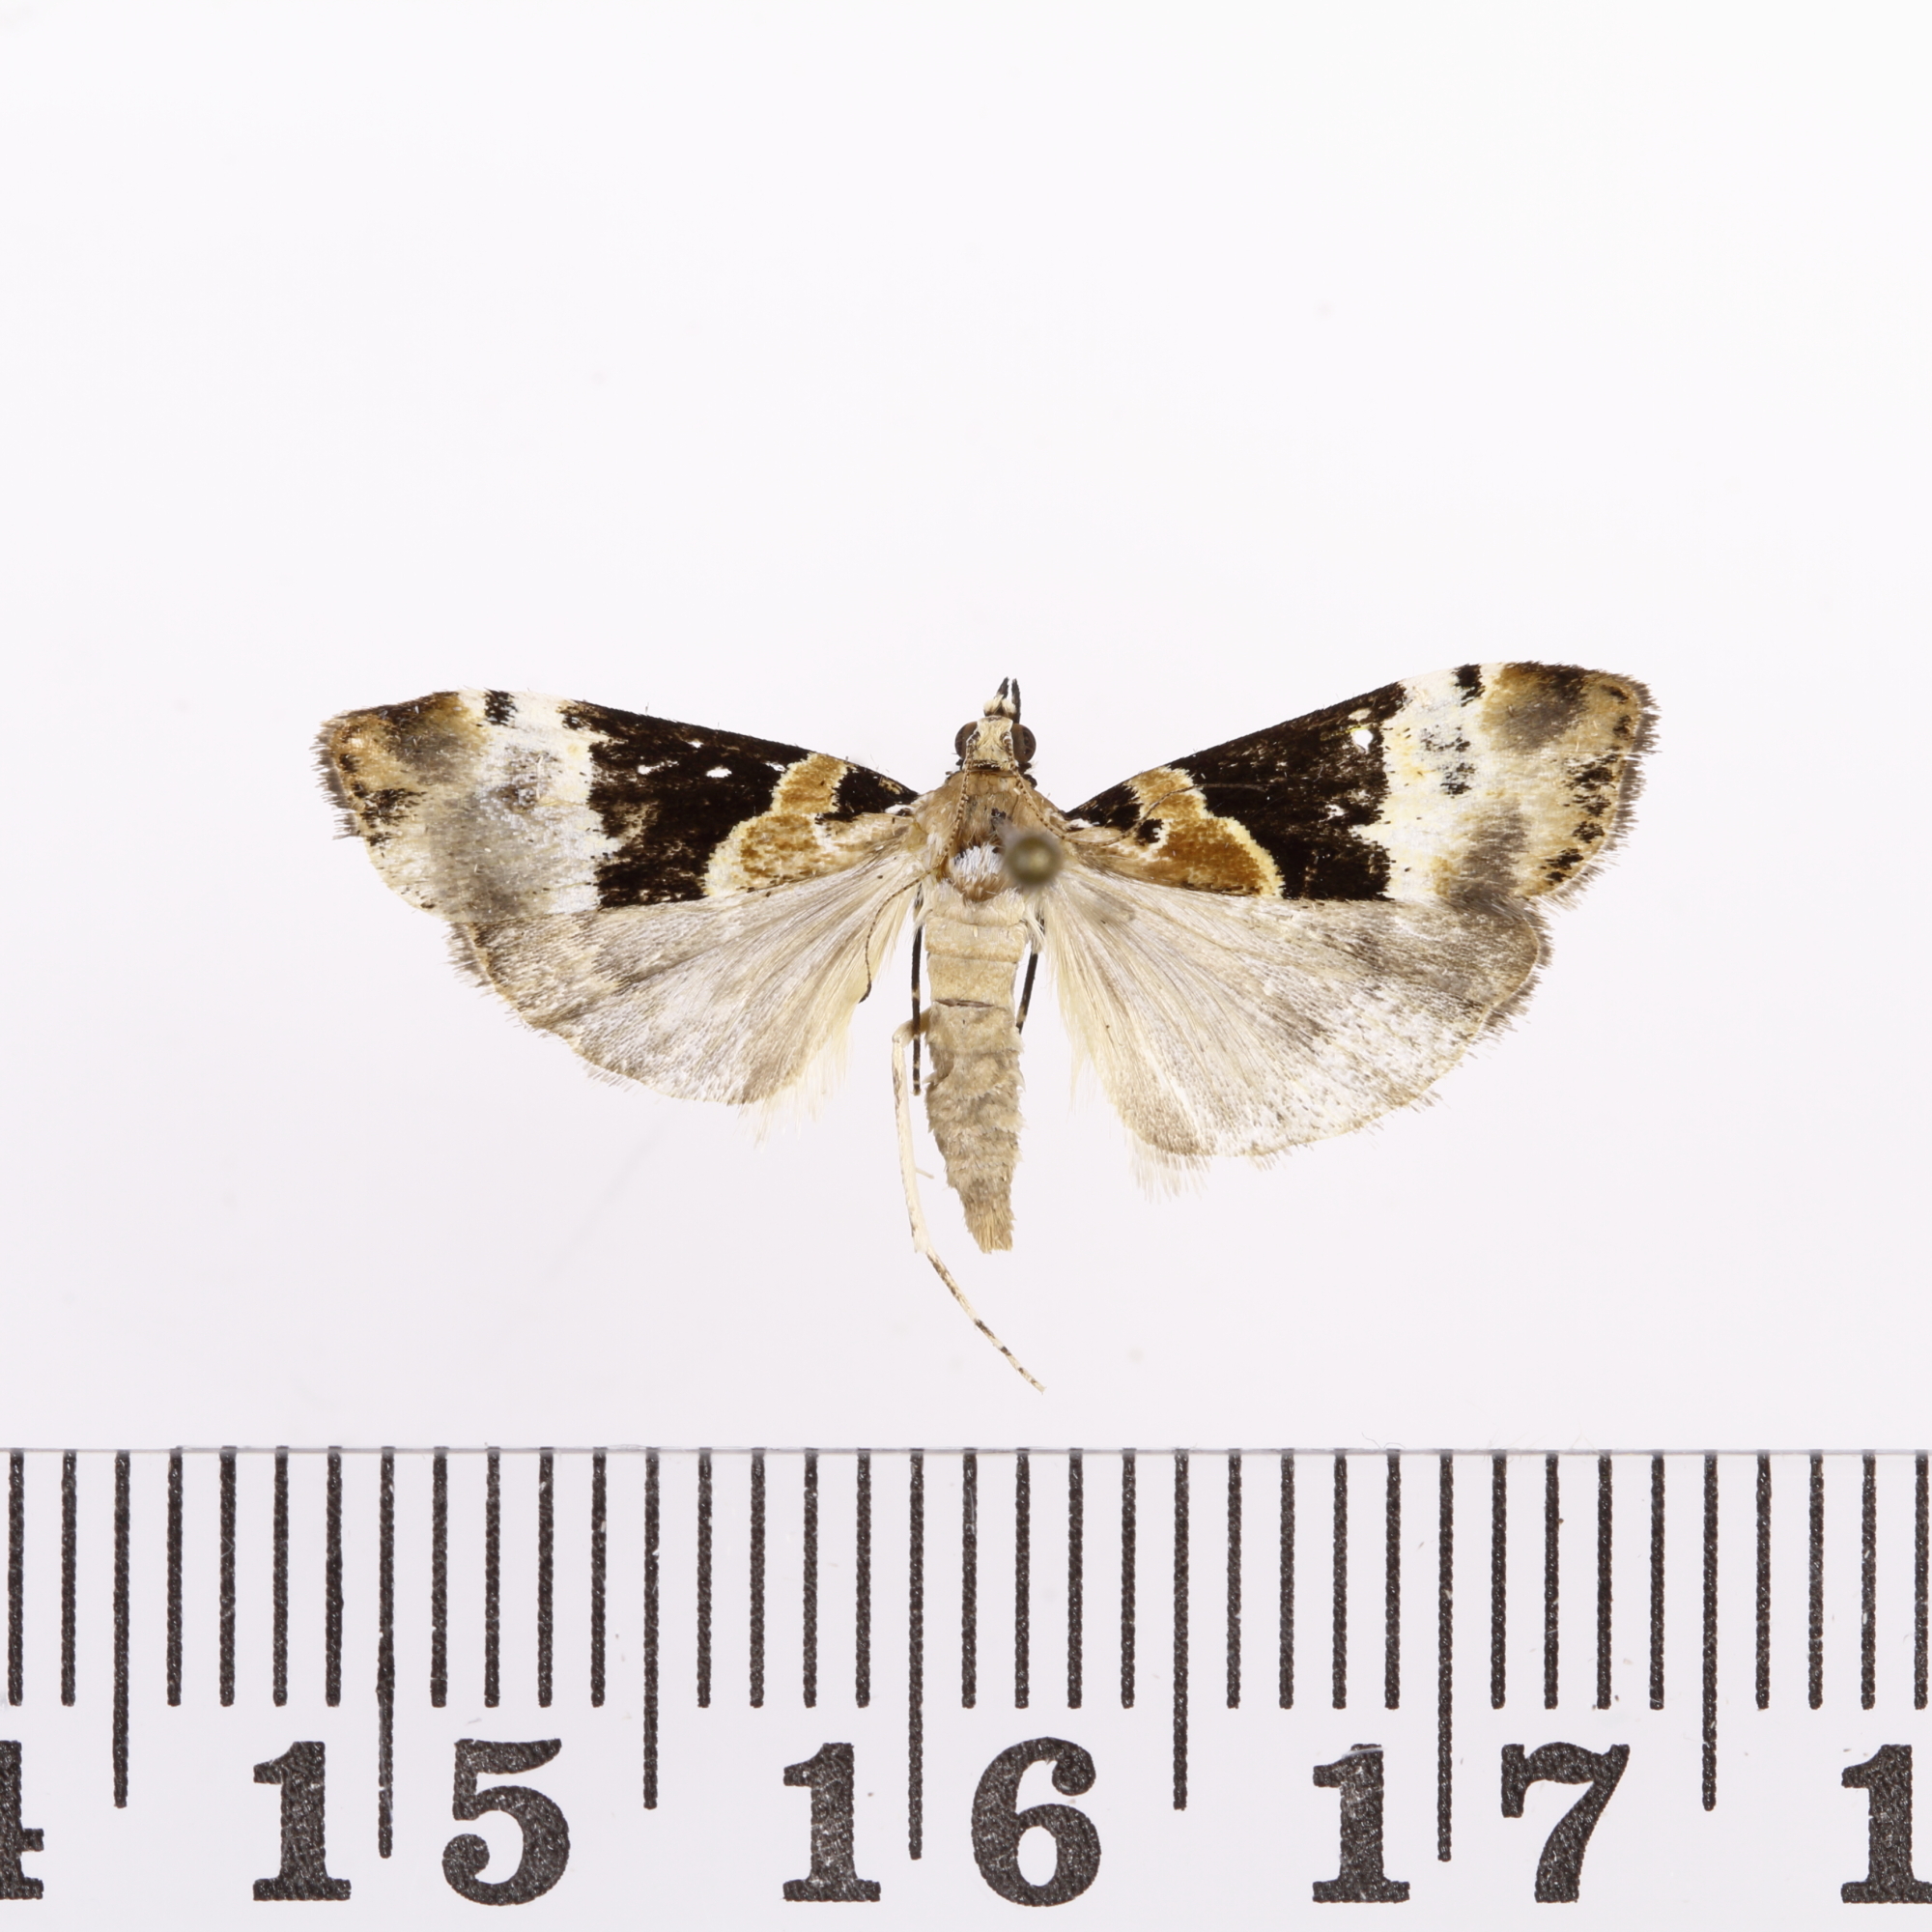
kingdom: Animalia
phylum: Arthropoda
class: Insecta
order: Lepidoptera
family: Crambidae
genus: Eudonia
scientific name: Eudonia aspidota
